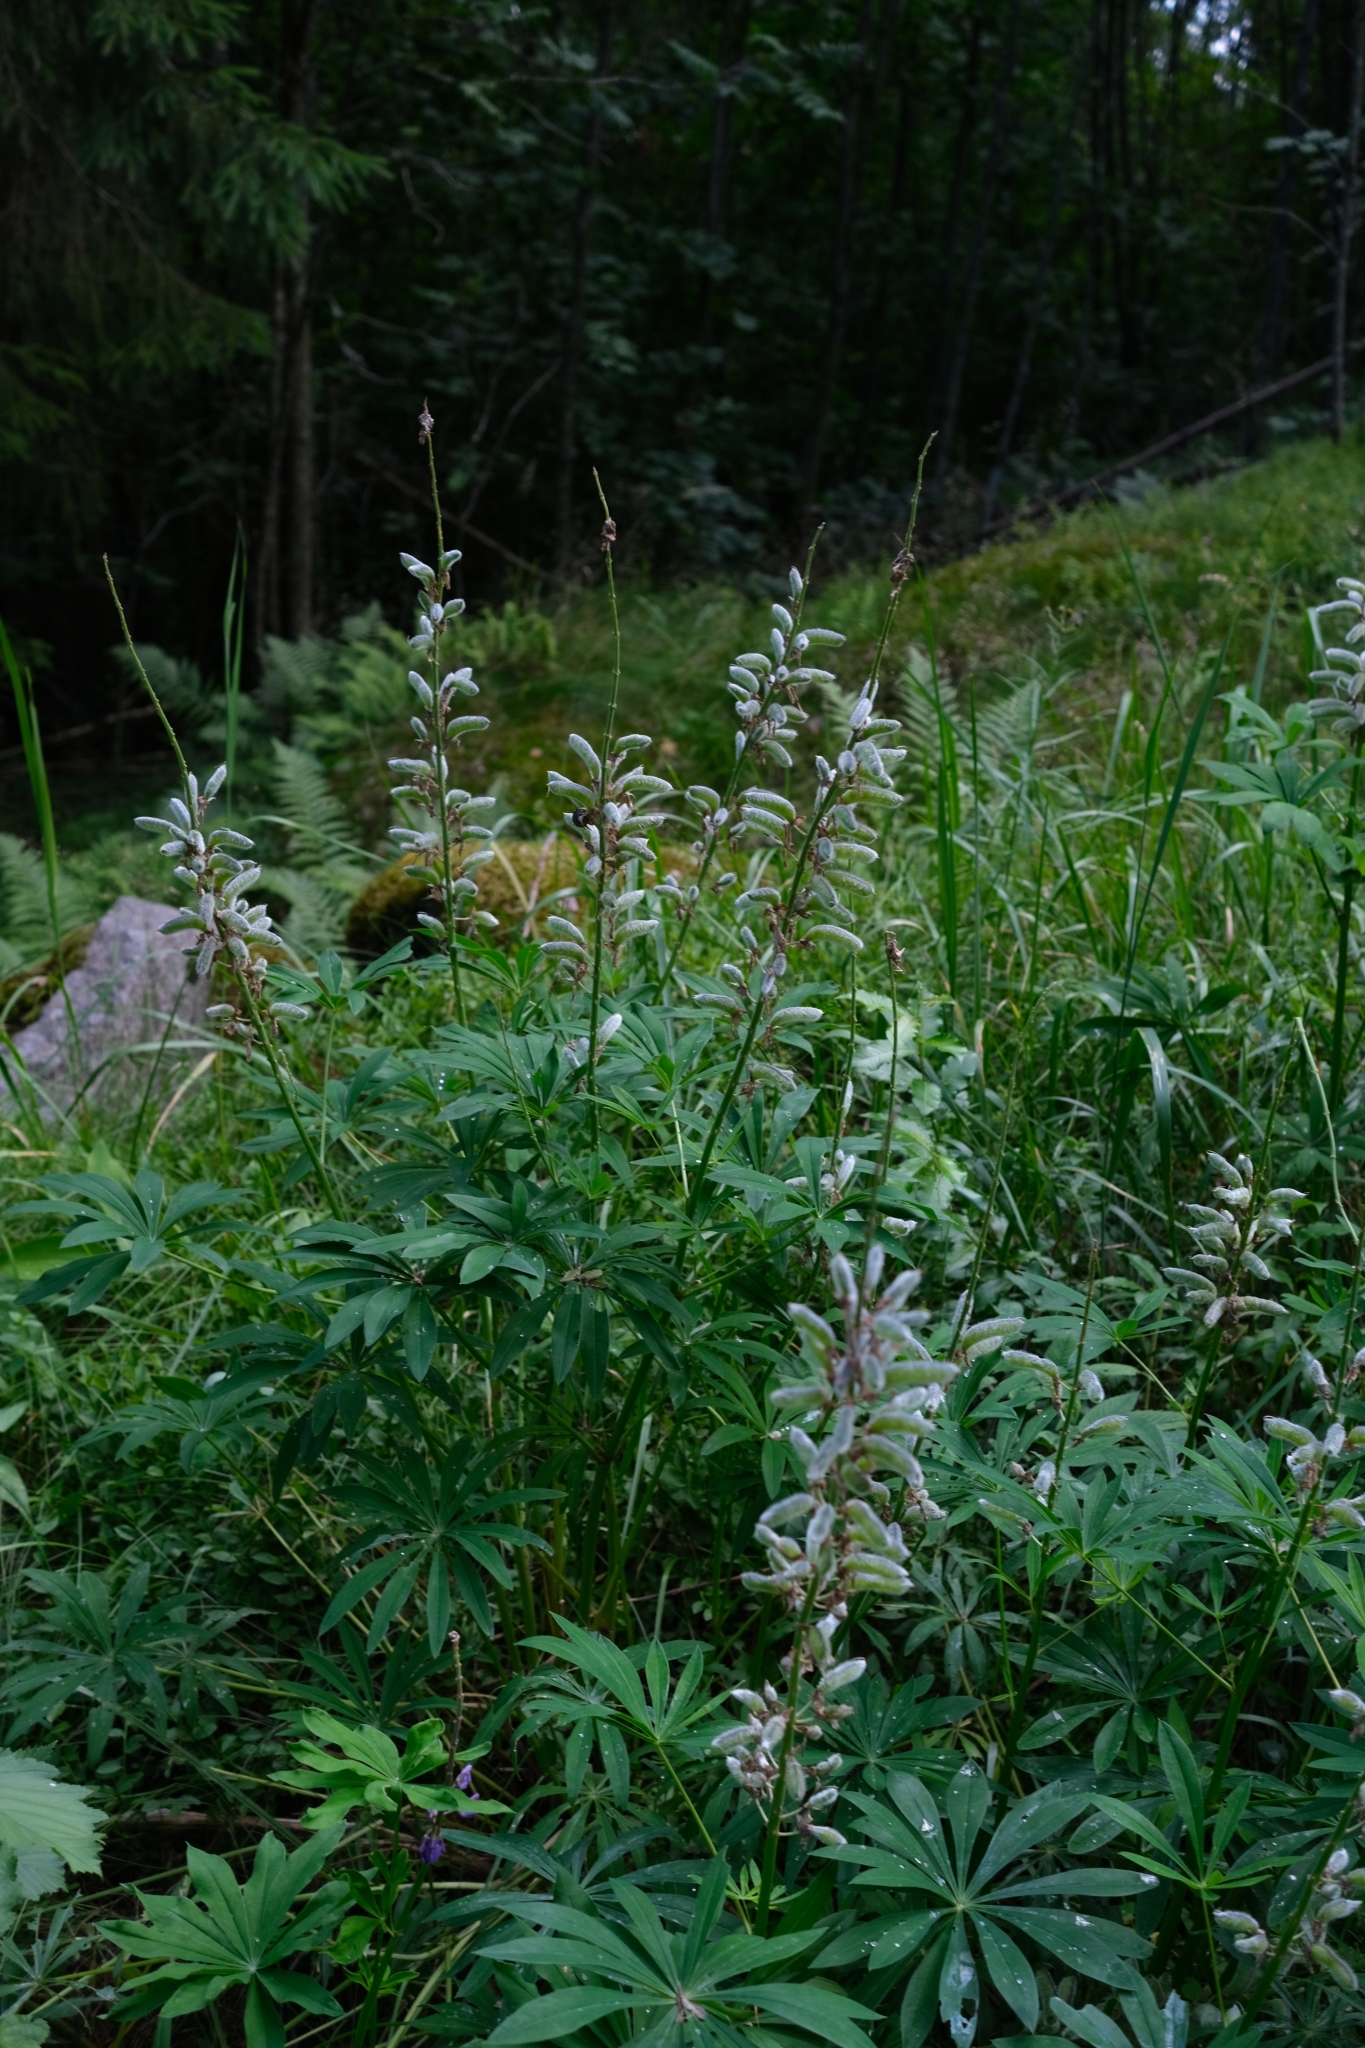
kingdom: Plantae
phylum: Tracheophyta
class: Magnoliopsida
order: Fabales
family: Fabaceae
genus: Lupinus
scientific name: Lupinus polyphyllus
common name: Garden lupin
